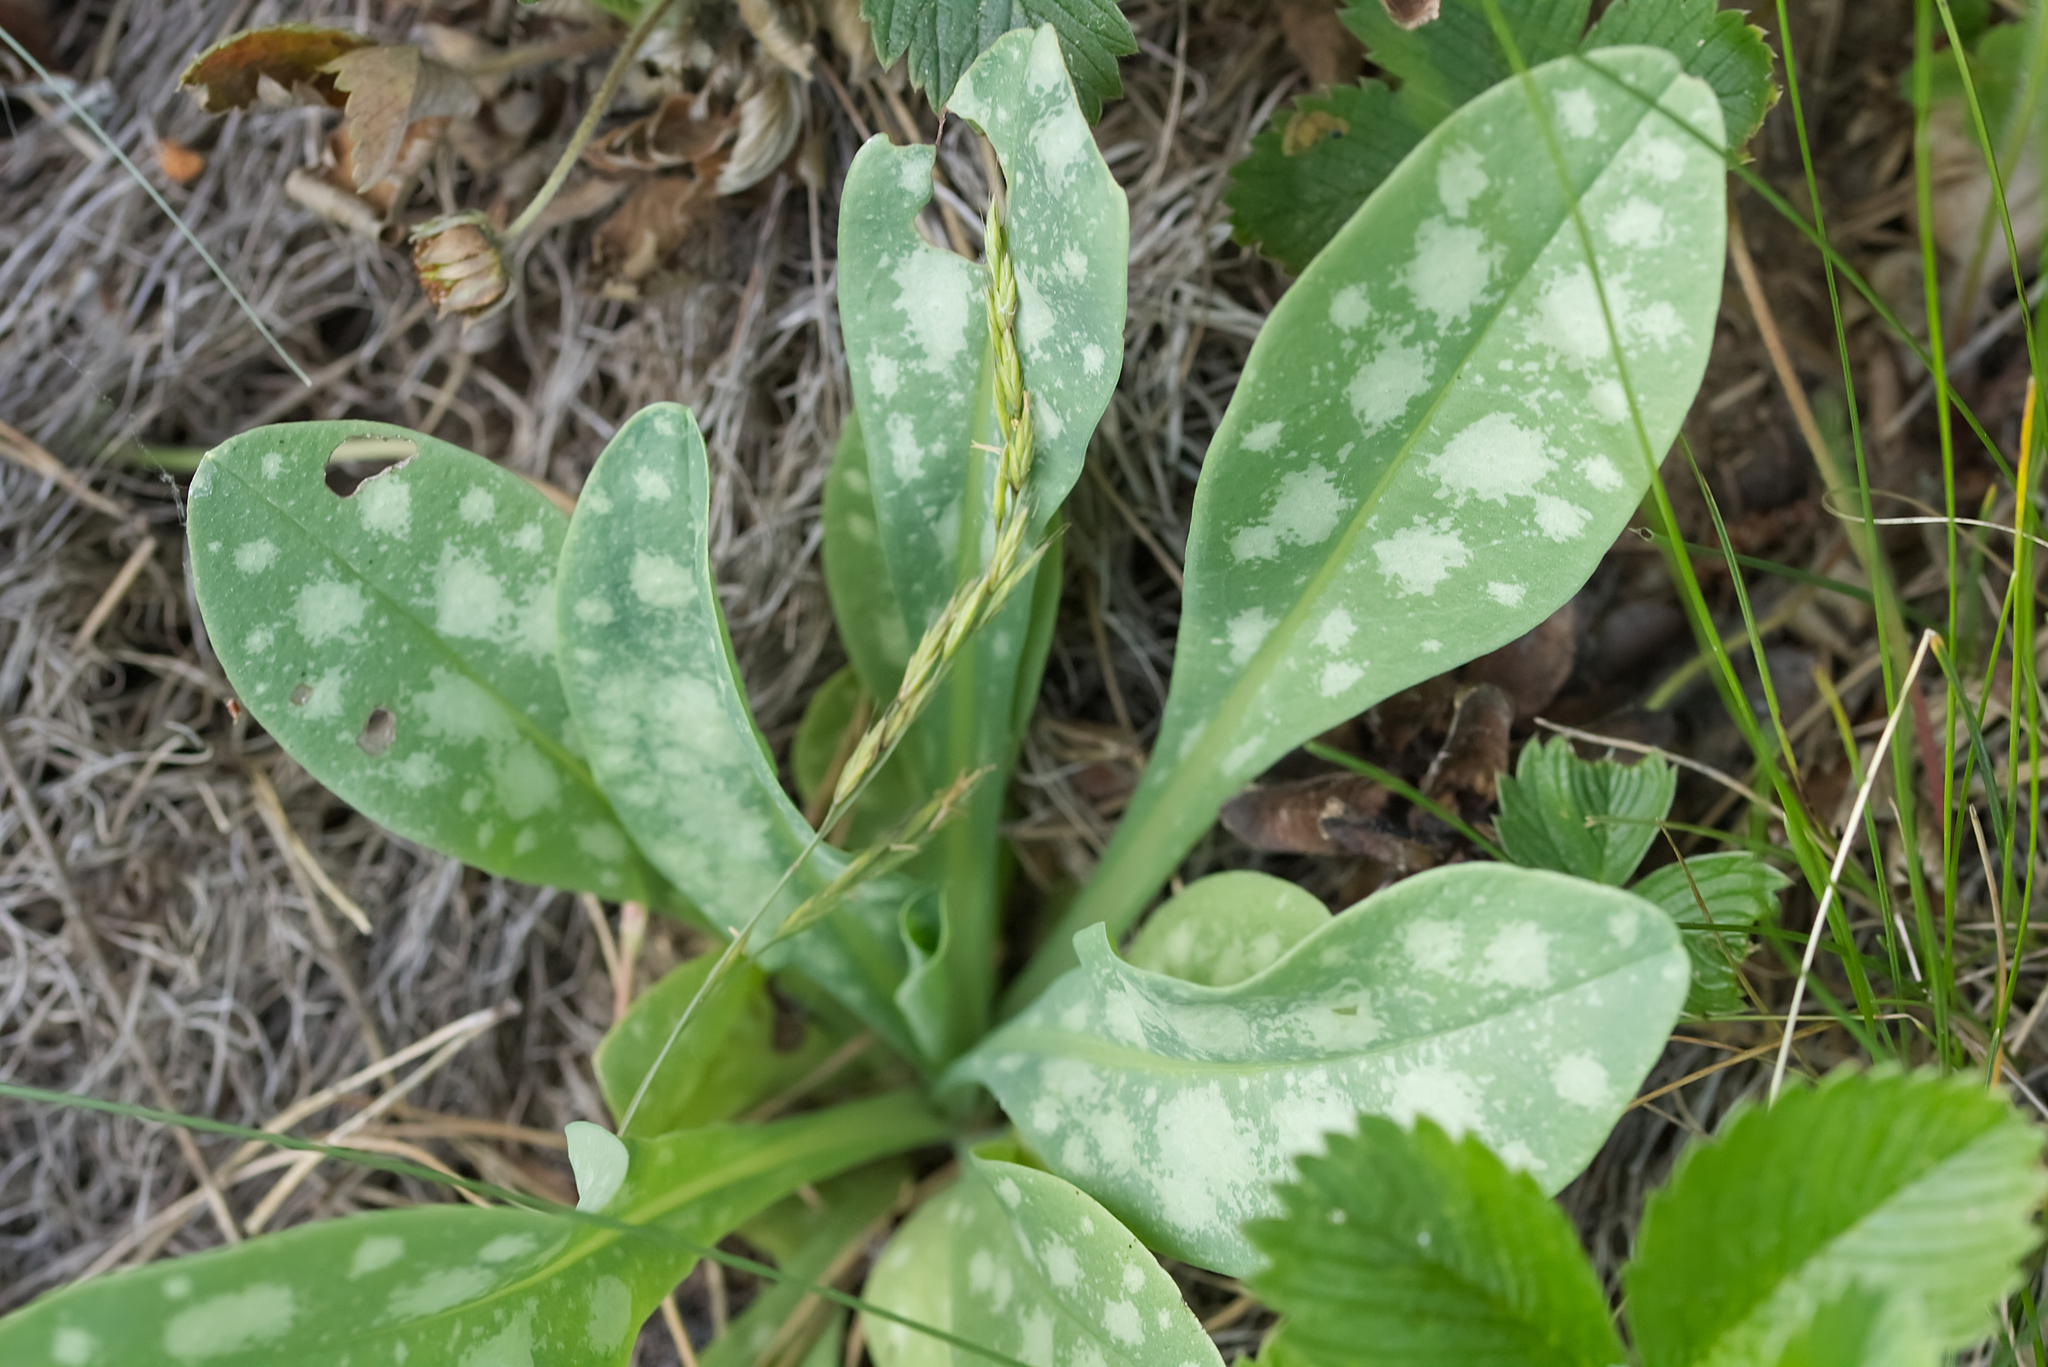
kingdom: Plantae
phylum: Tracheophyta
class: Magnoliopsida
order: Boraginales
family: Boraginaceae
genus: Cerinthe
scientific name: Cerinthe minor
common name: Lesser honeywort
